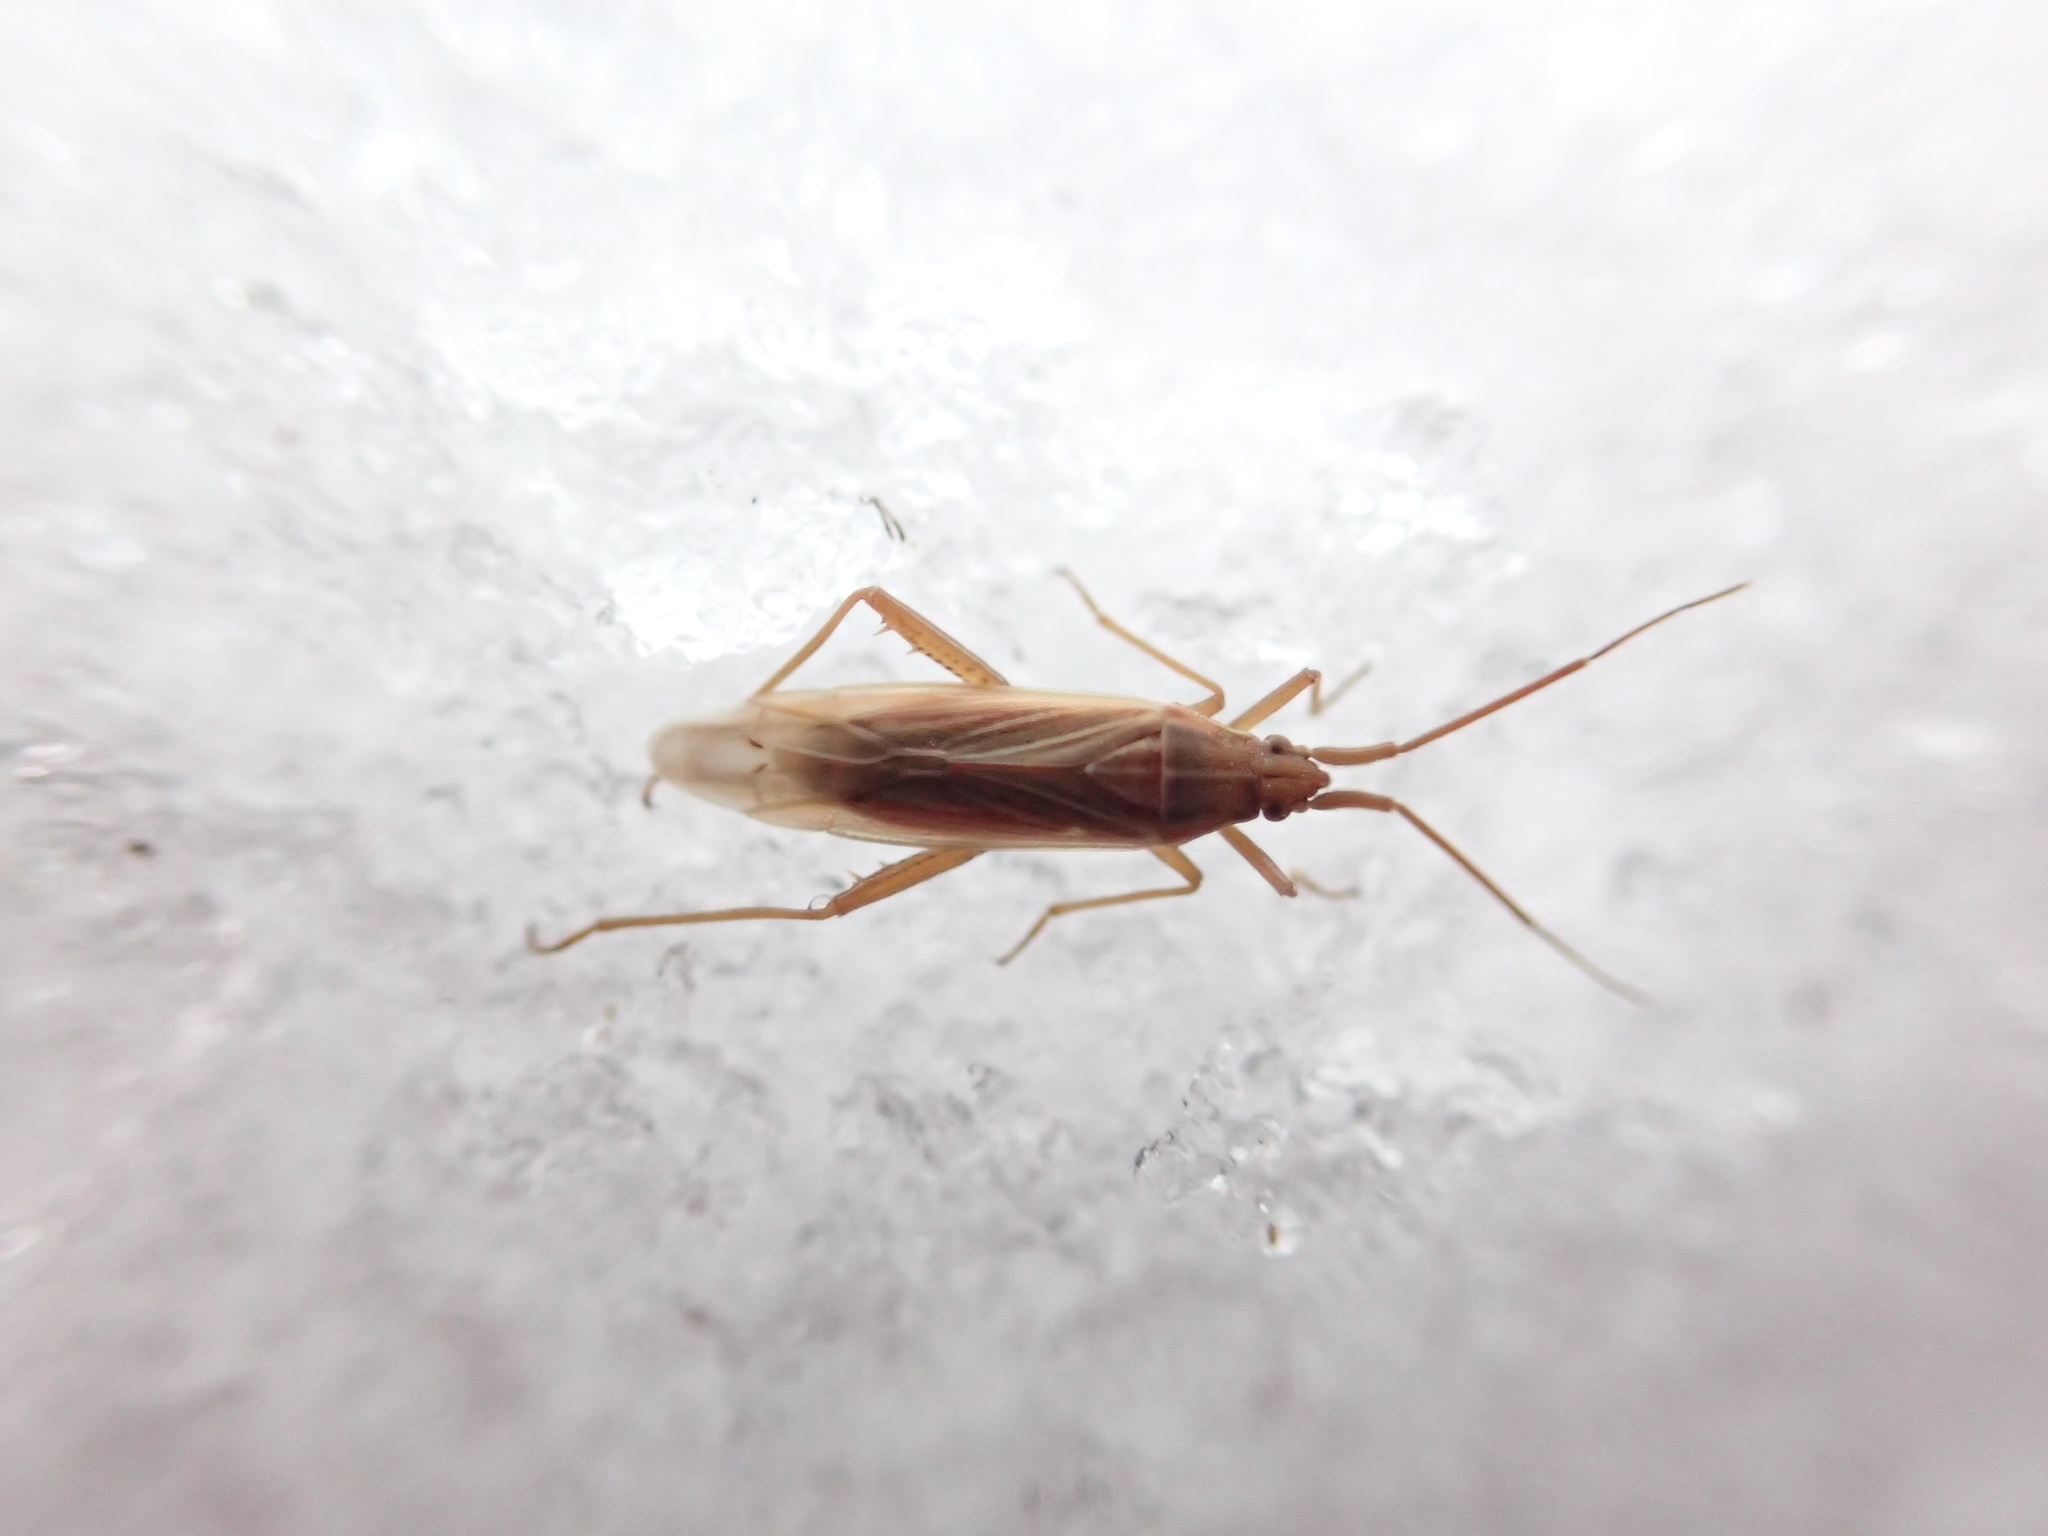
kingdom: Animalia
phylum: Arthropoda
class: Insecta
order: Hemiptera
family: Miridae
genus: Stenodema
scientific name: Stenodema trispinosa
